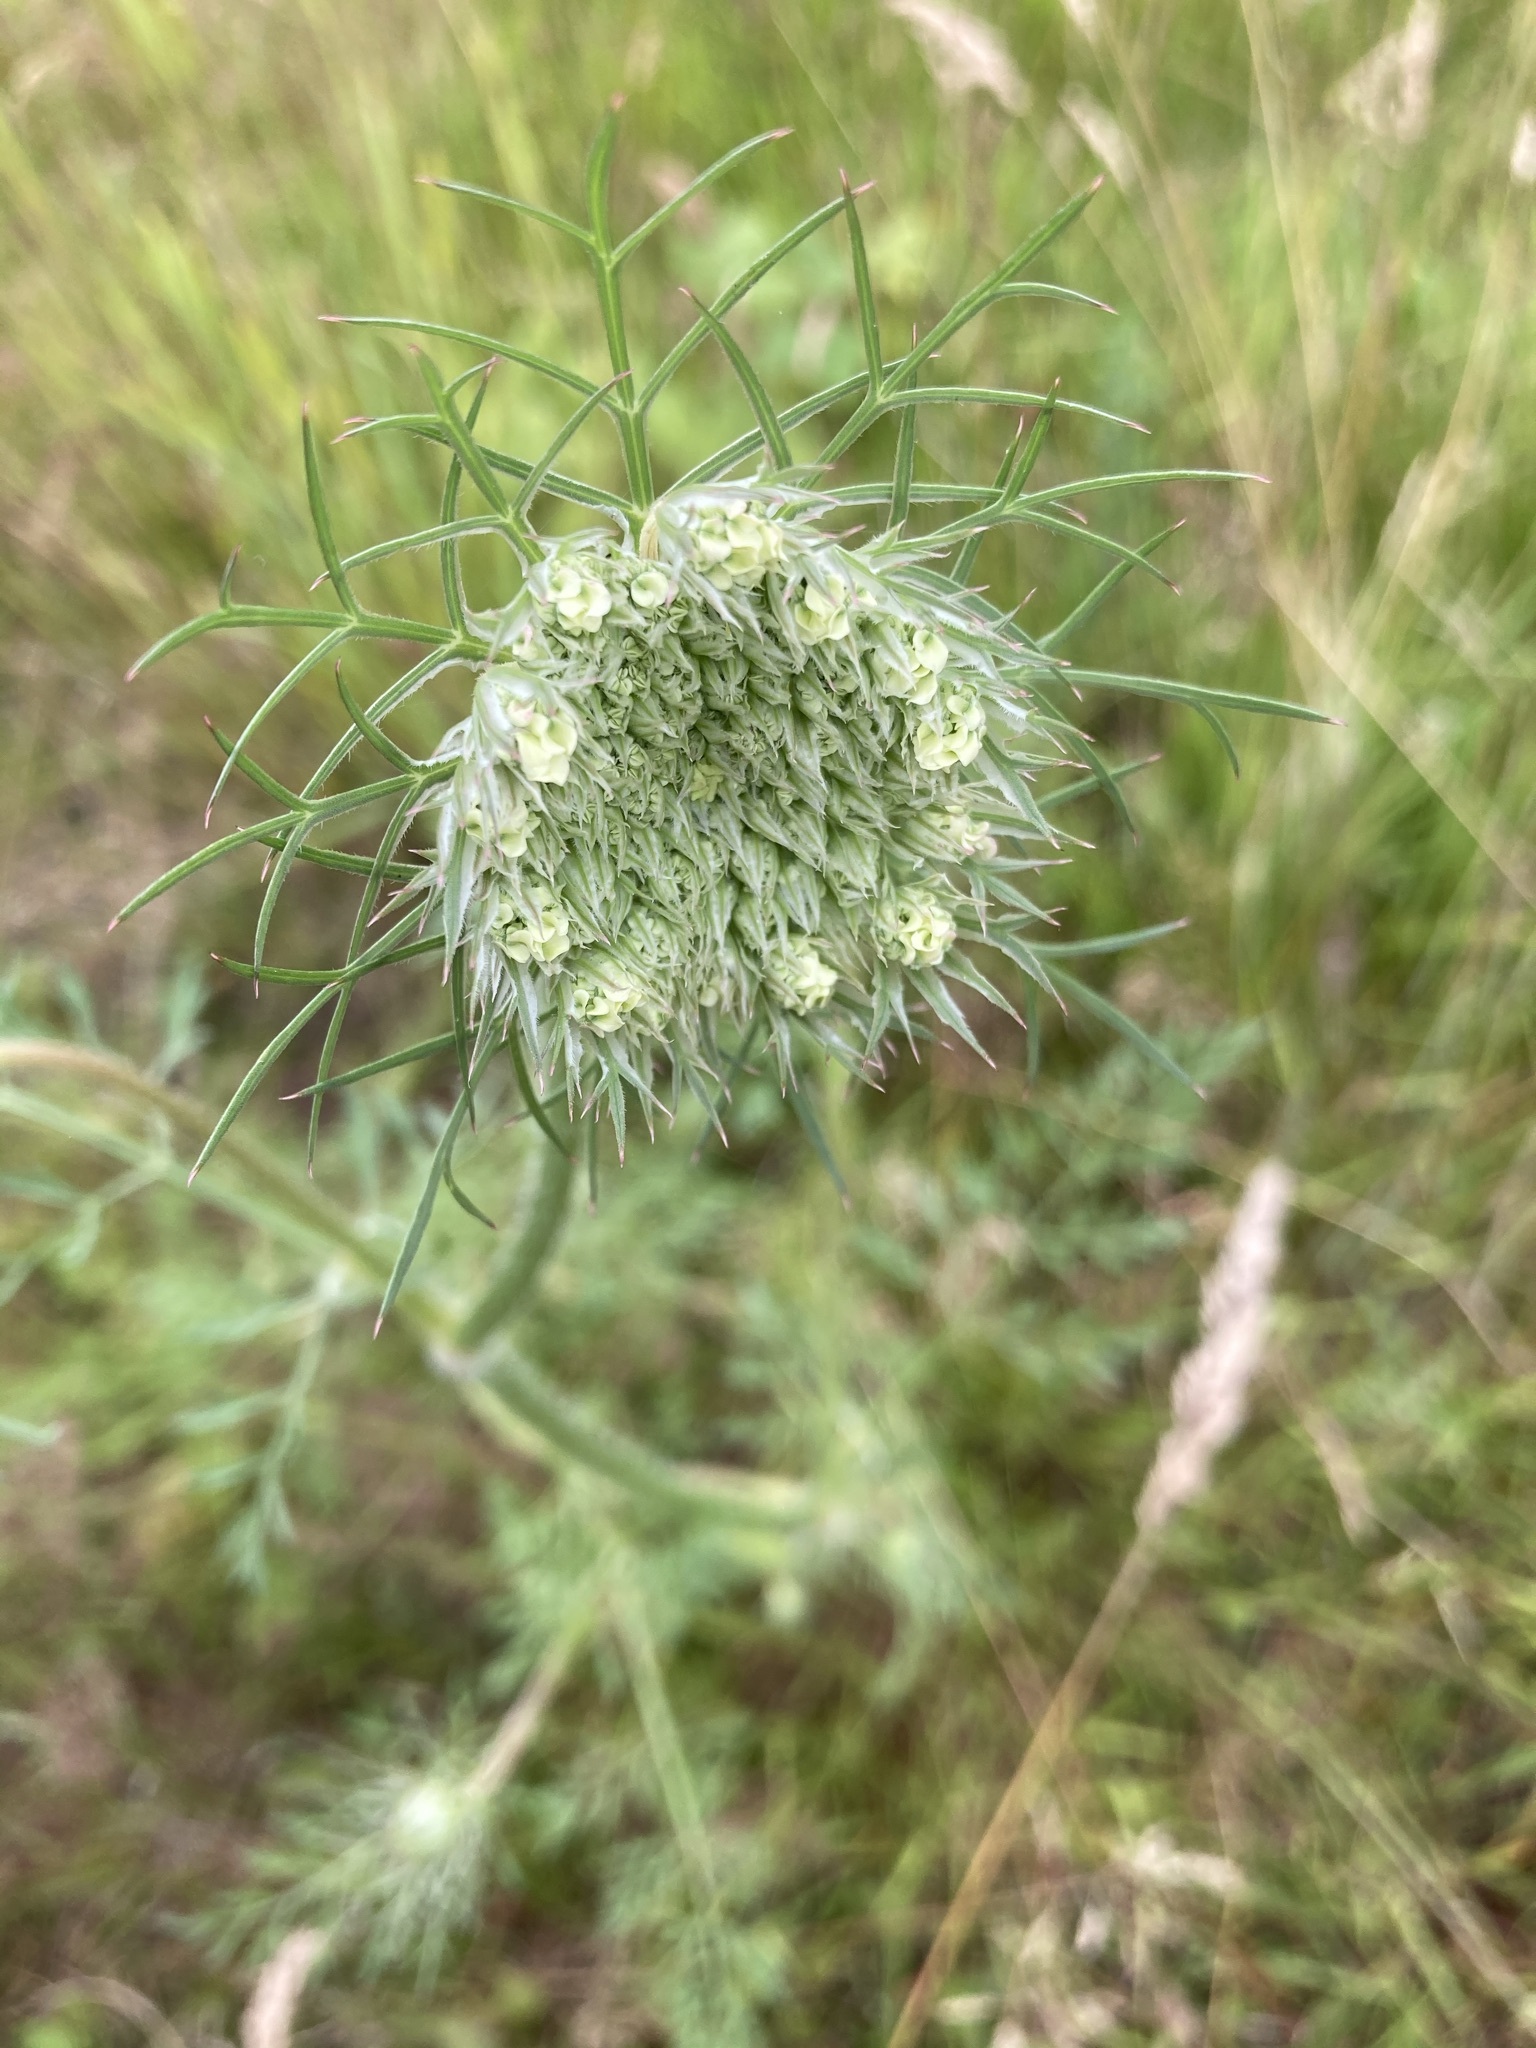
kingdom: Plantae
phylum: Tracheophyta
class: Magnoliopsida
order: Apiales
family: Apiaceae
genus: Daucus
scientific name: Daucus carota
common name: Wild carrot
